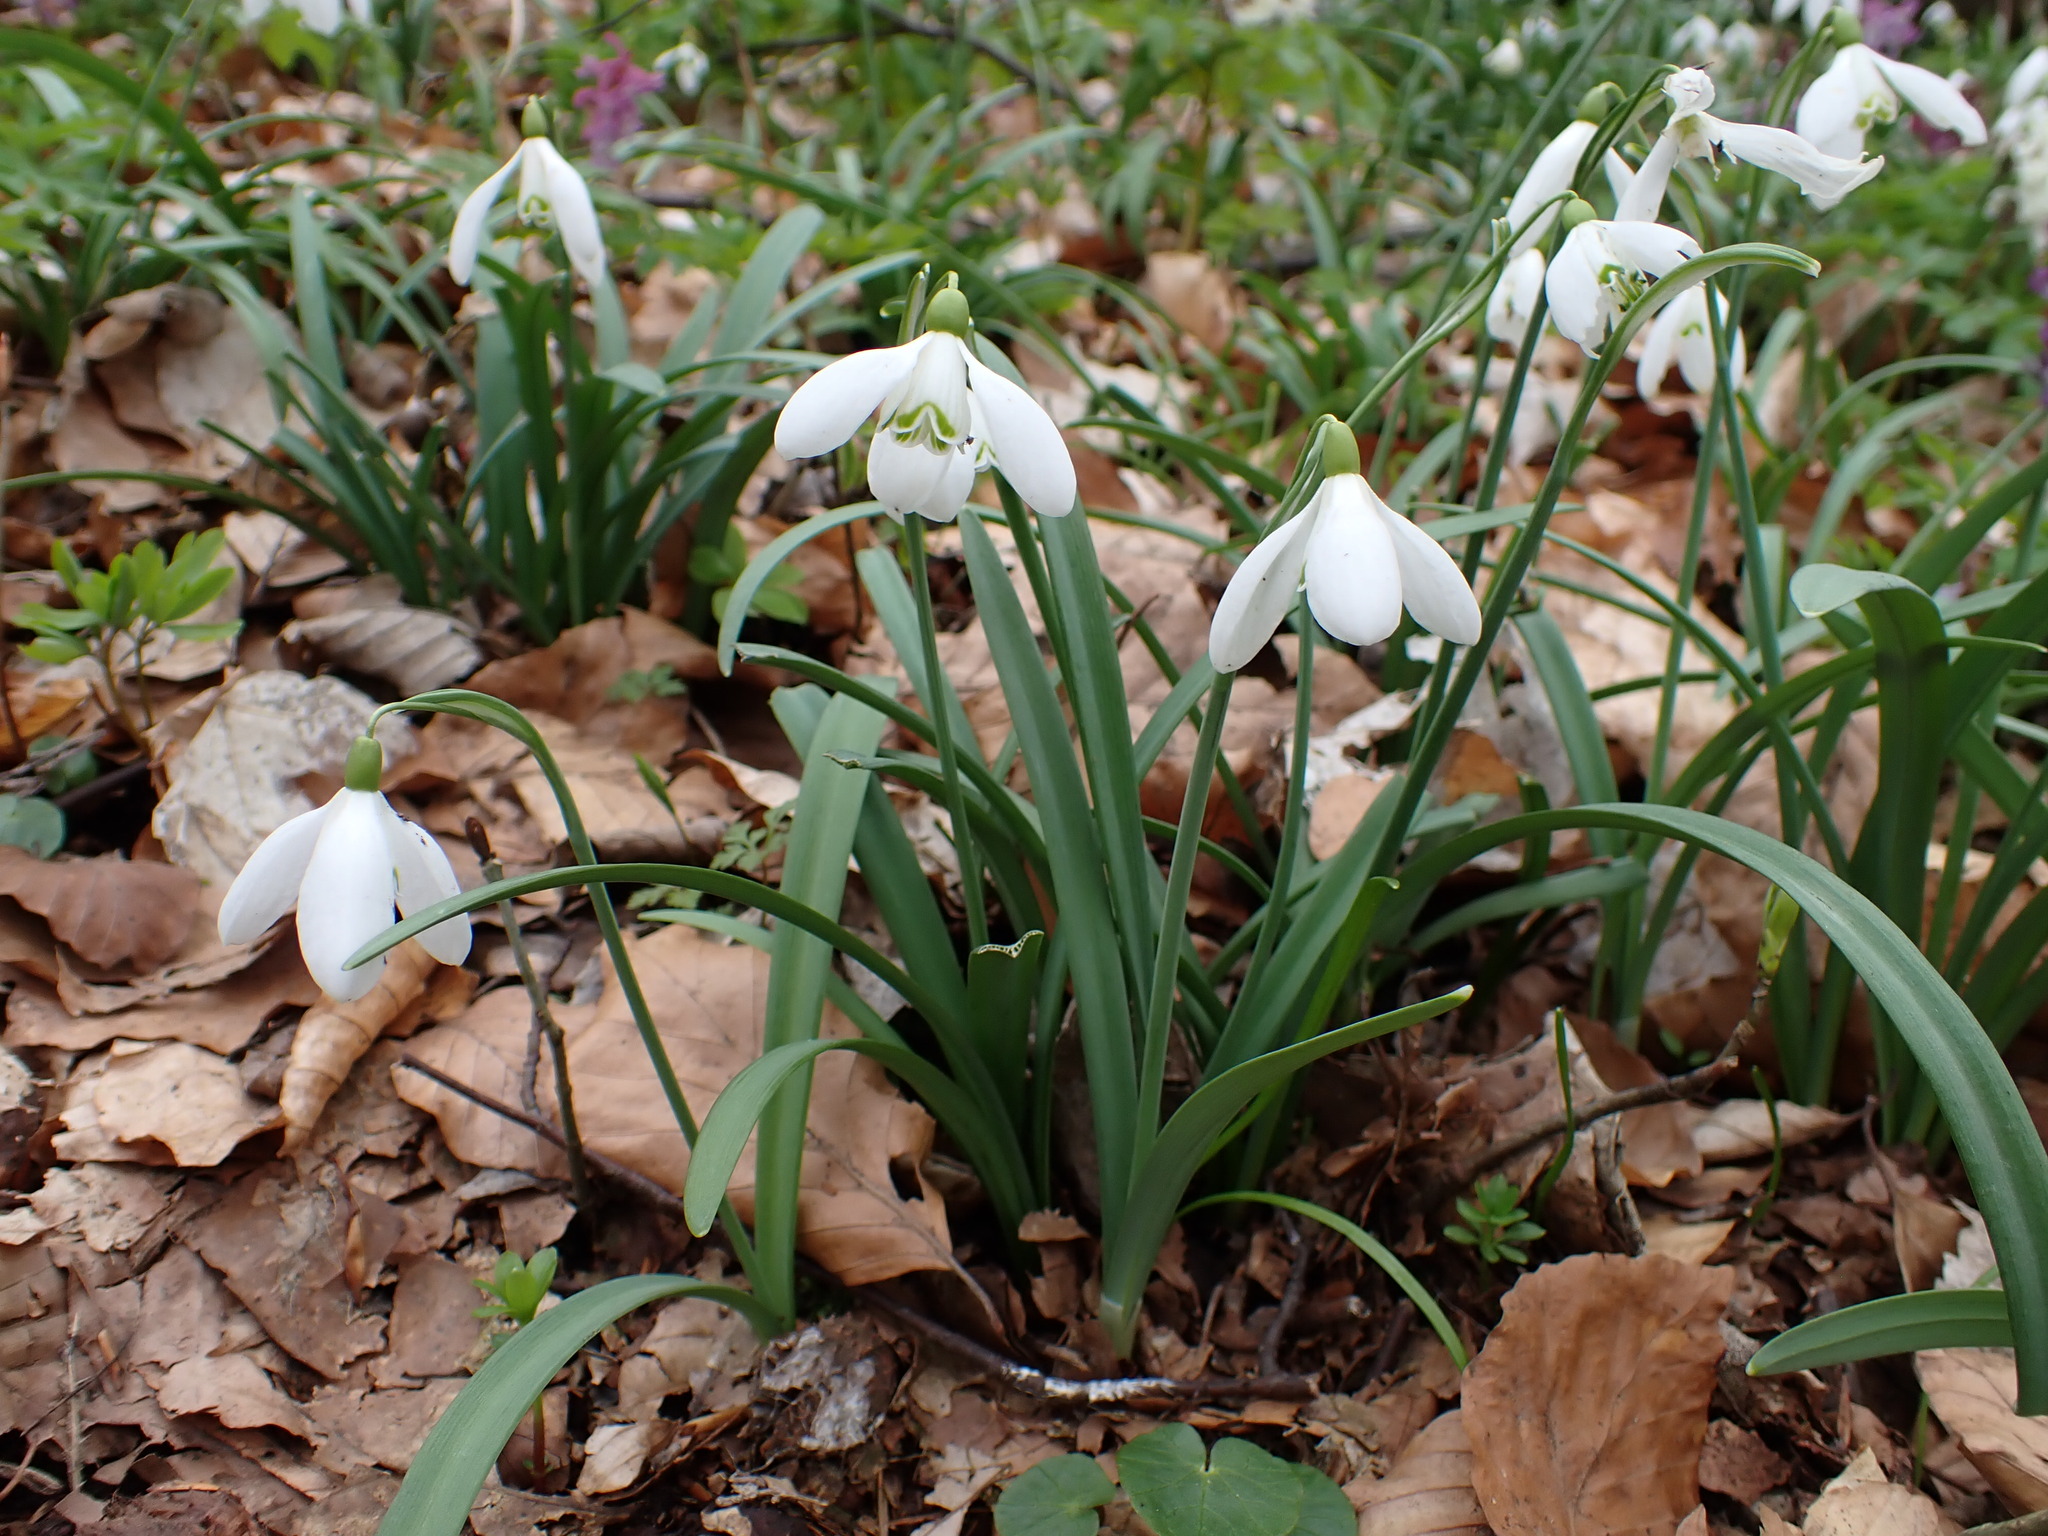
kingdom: Plantae
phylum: Tracheophyta
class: Liliopsida
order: Asparagales
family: Amaryllidaceae
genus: Galanthus
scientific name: Galanthus nivalis
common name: Snowdrop
